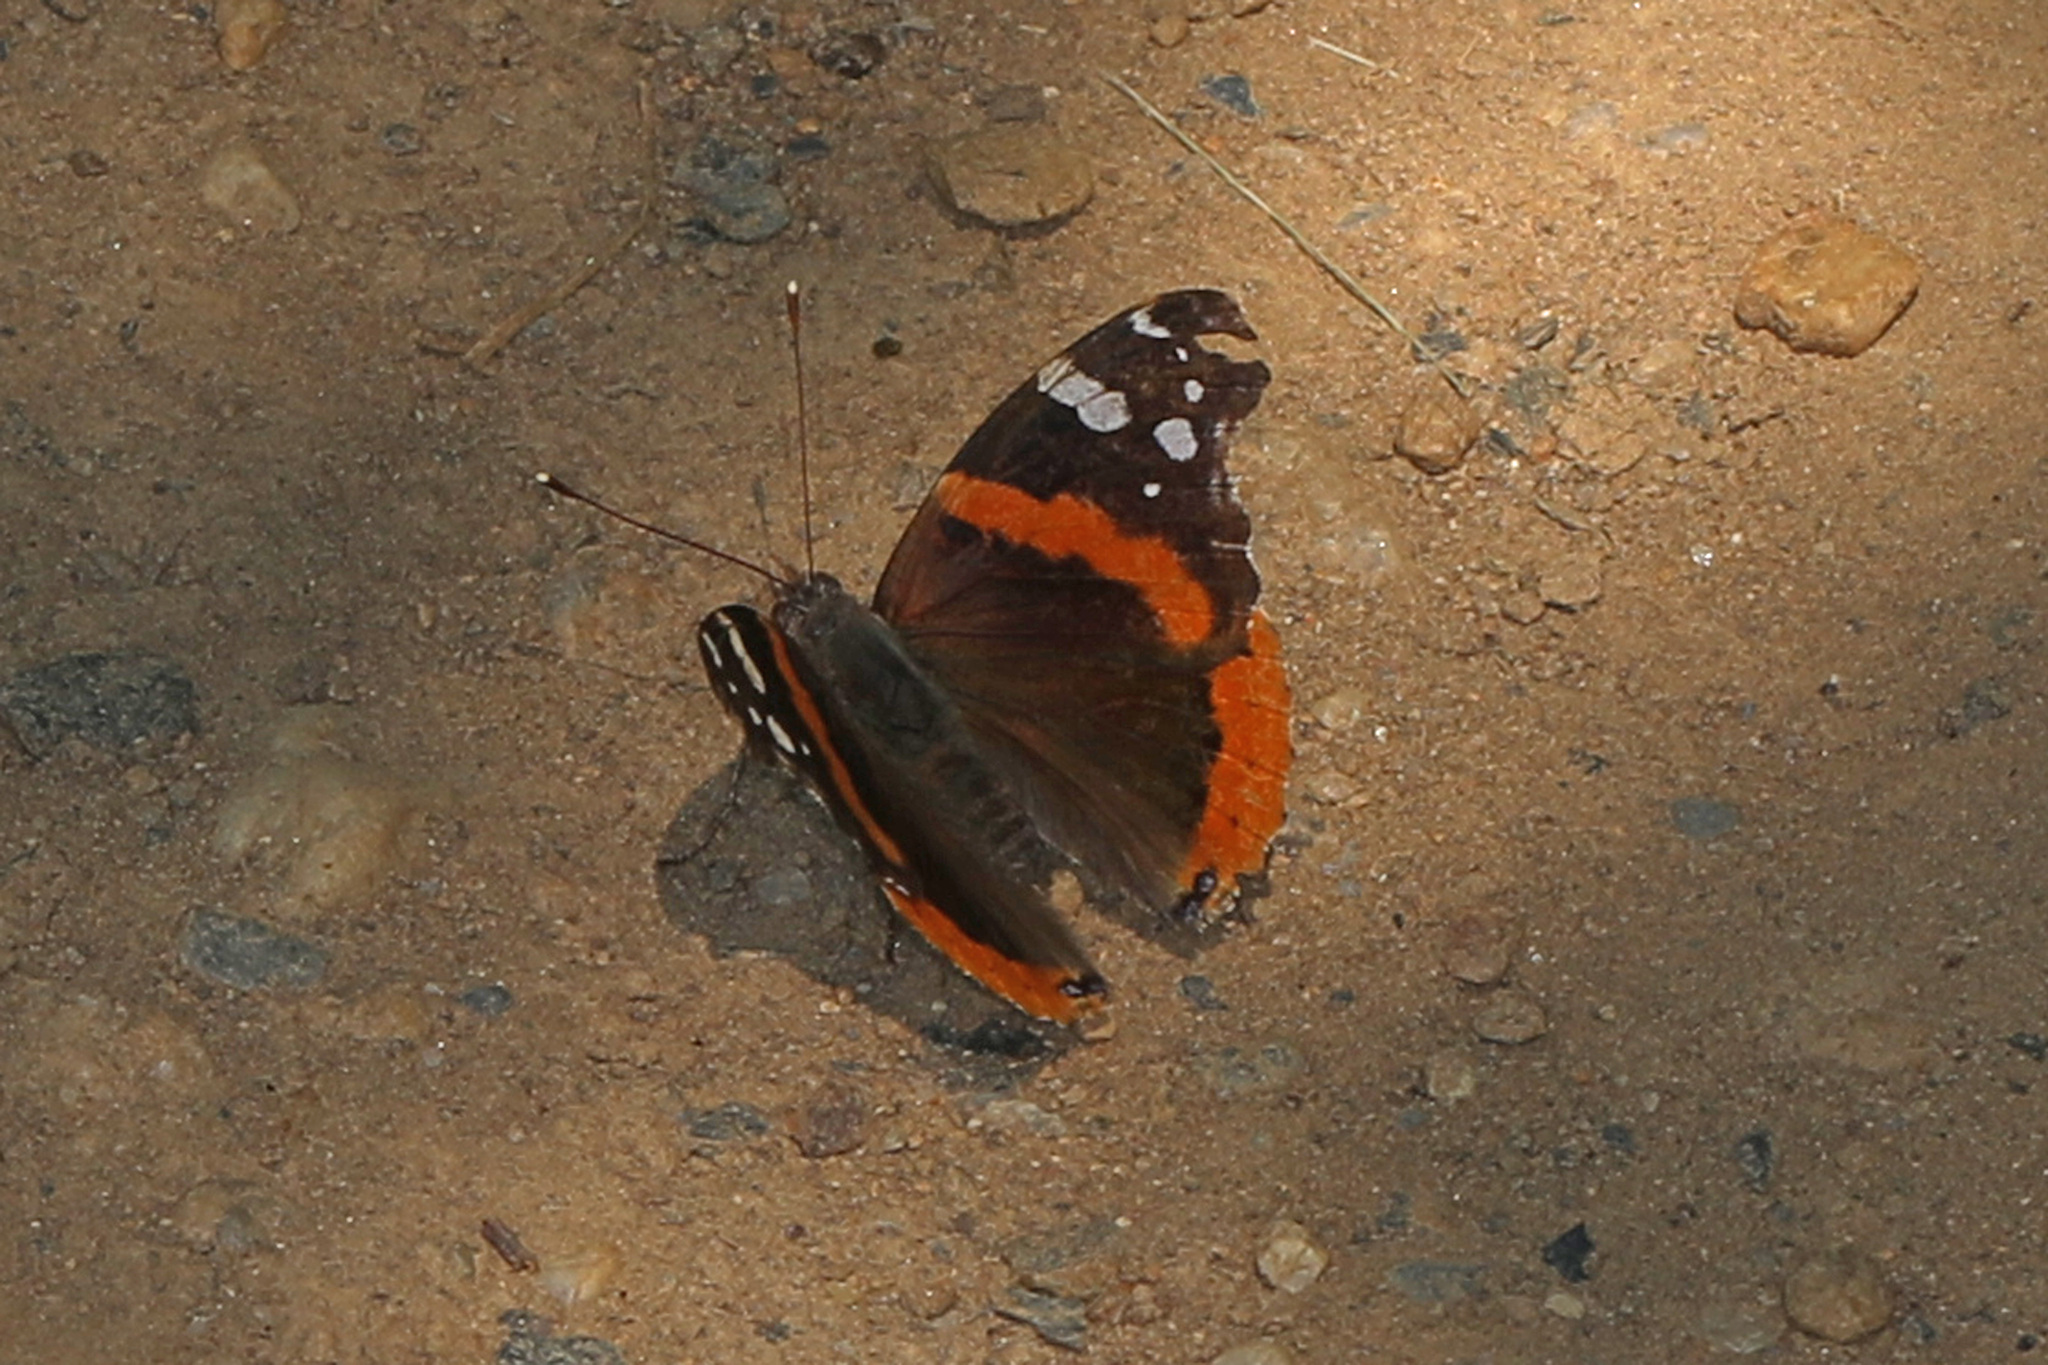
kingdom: Animalia
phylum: Arthropoda
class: Insecta
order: Lepidoptera
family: Nymphalidae
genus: Vanessa
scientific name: Vanessa atalanta
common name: Red admiral
